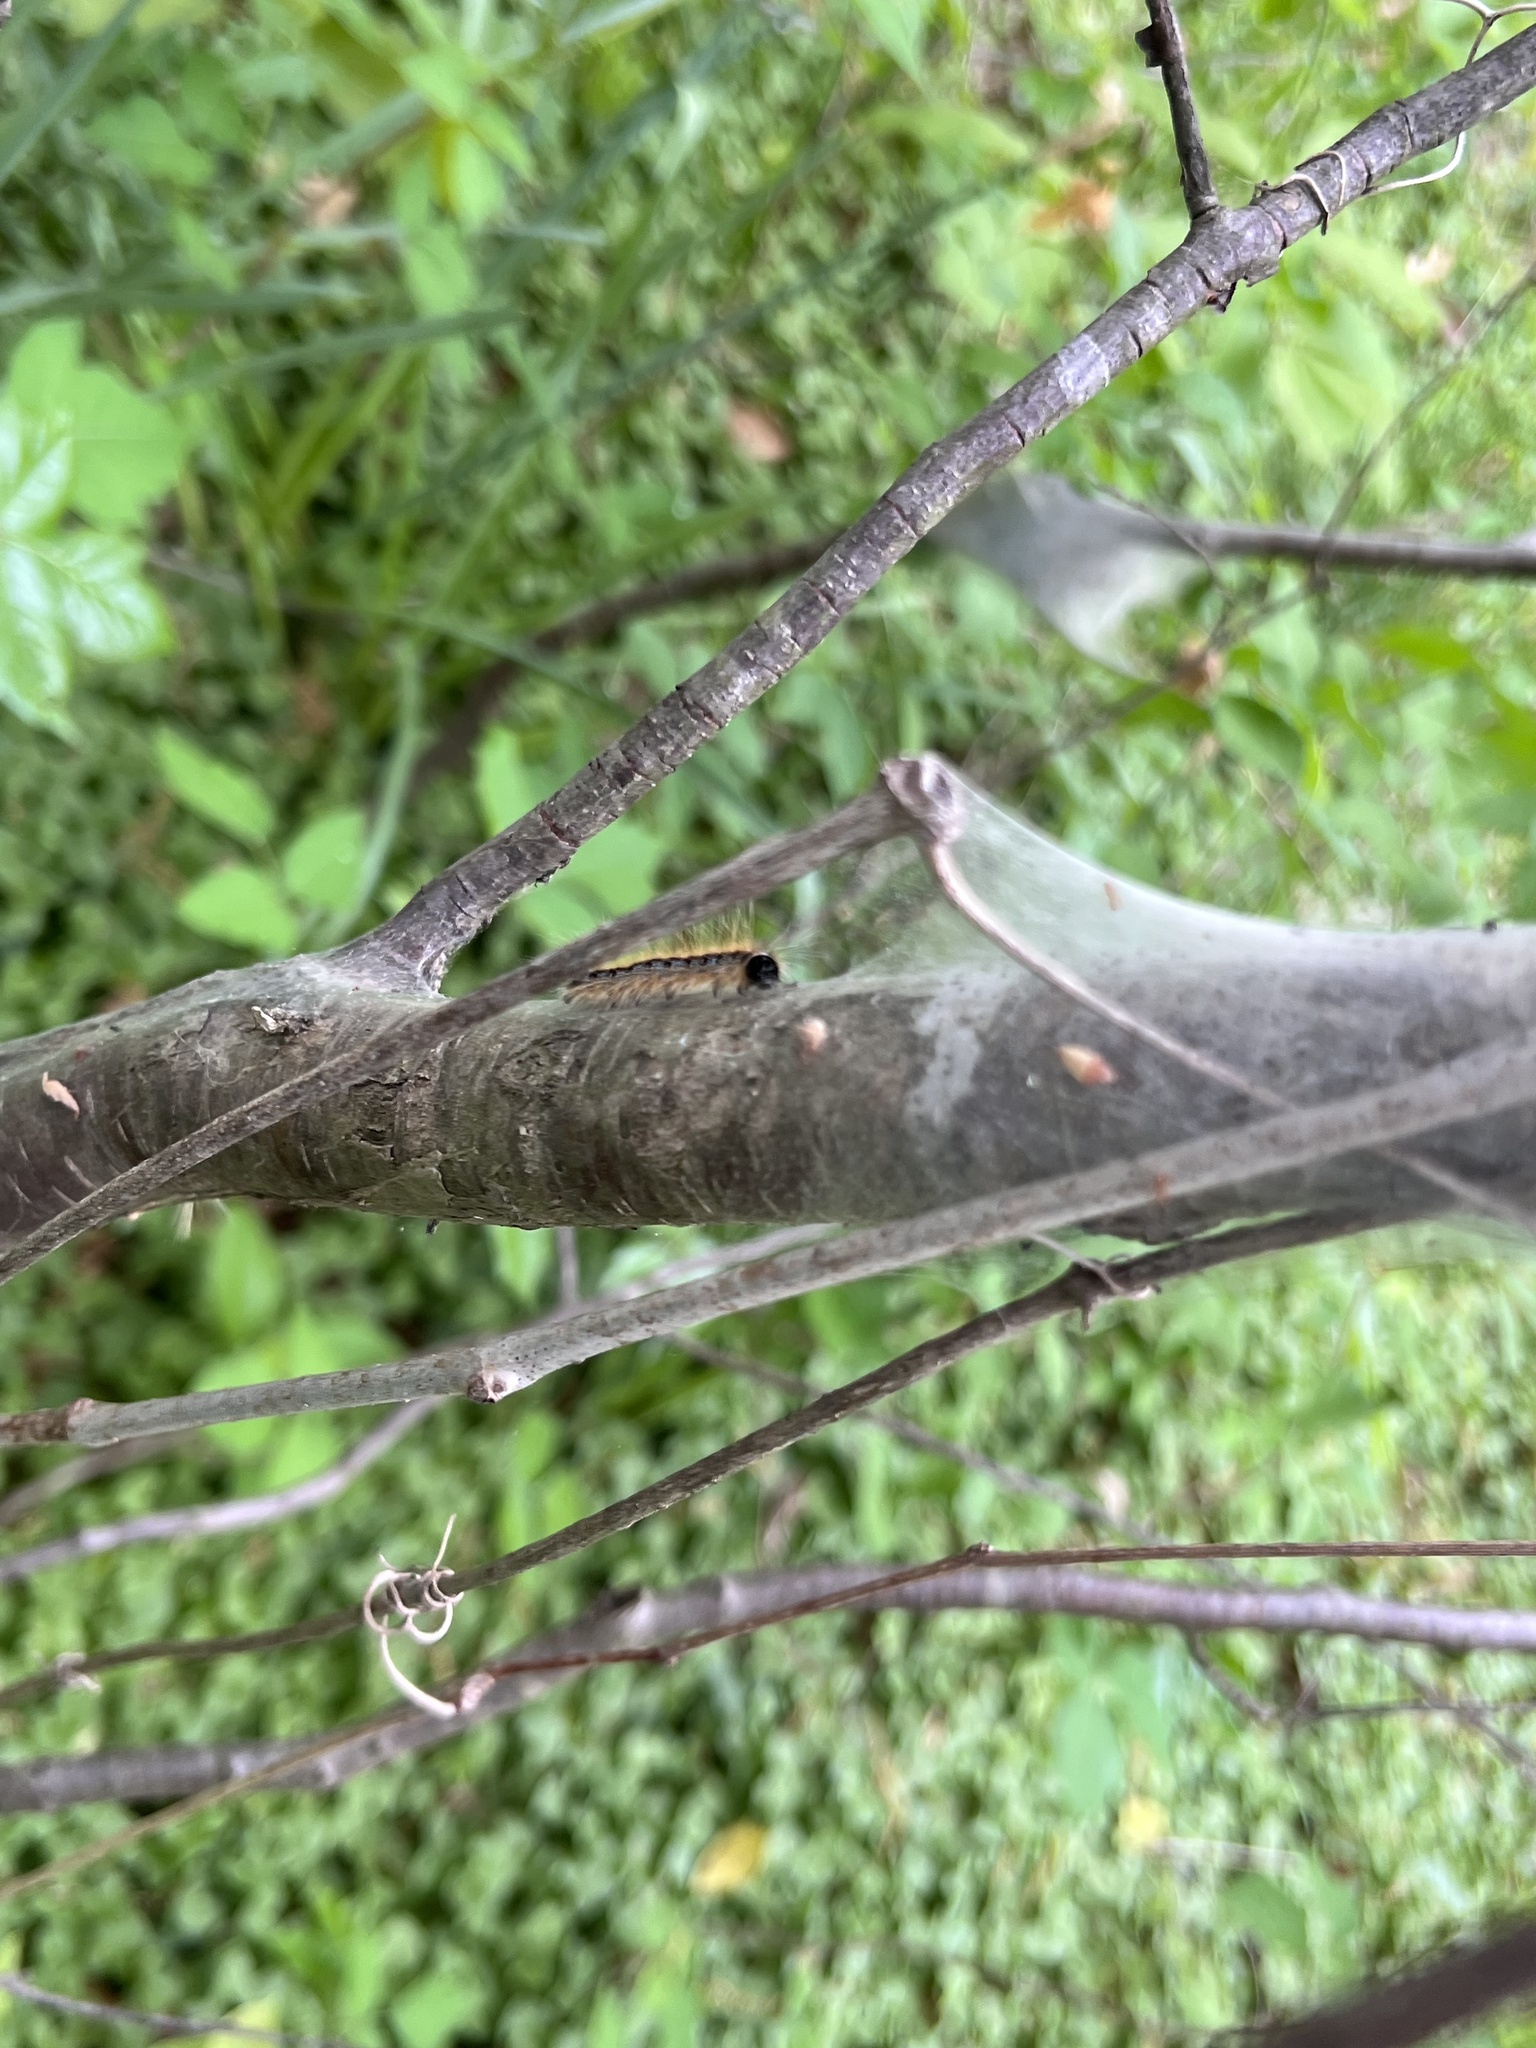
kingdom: Animalia
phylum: Arthropoda
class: Insecta
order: Lepidoptera
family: Lasiocampidae
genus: Malacosoma
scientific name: Malacosoma americana
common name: Eastern tent caterpillar moth
